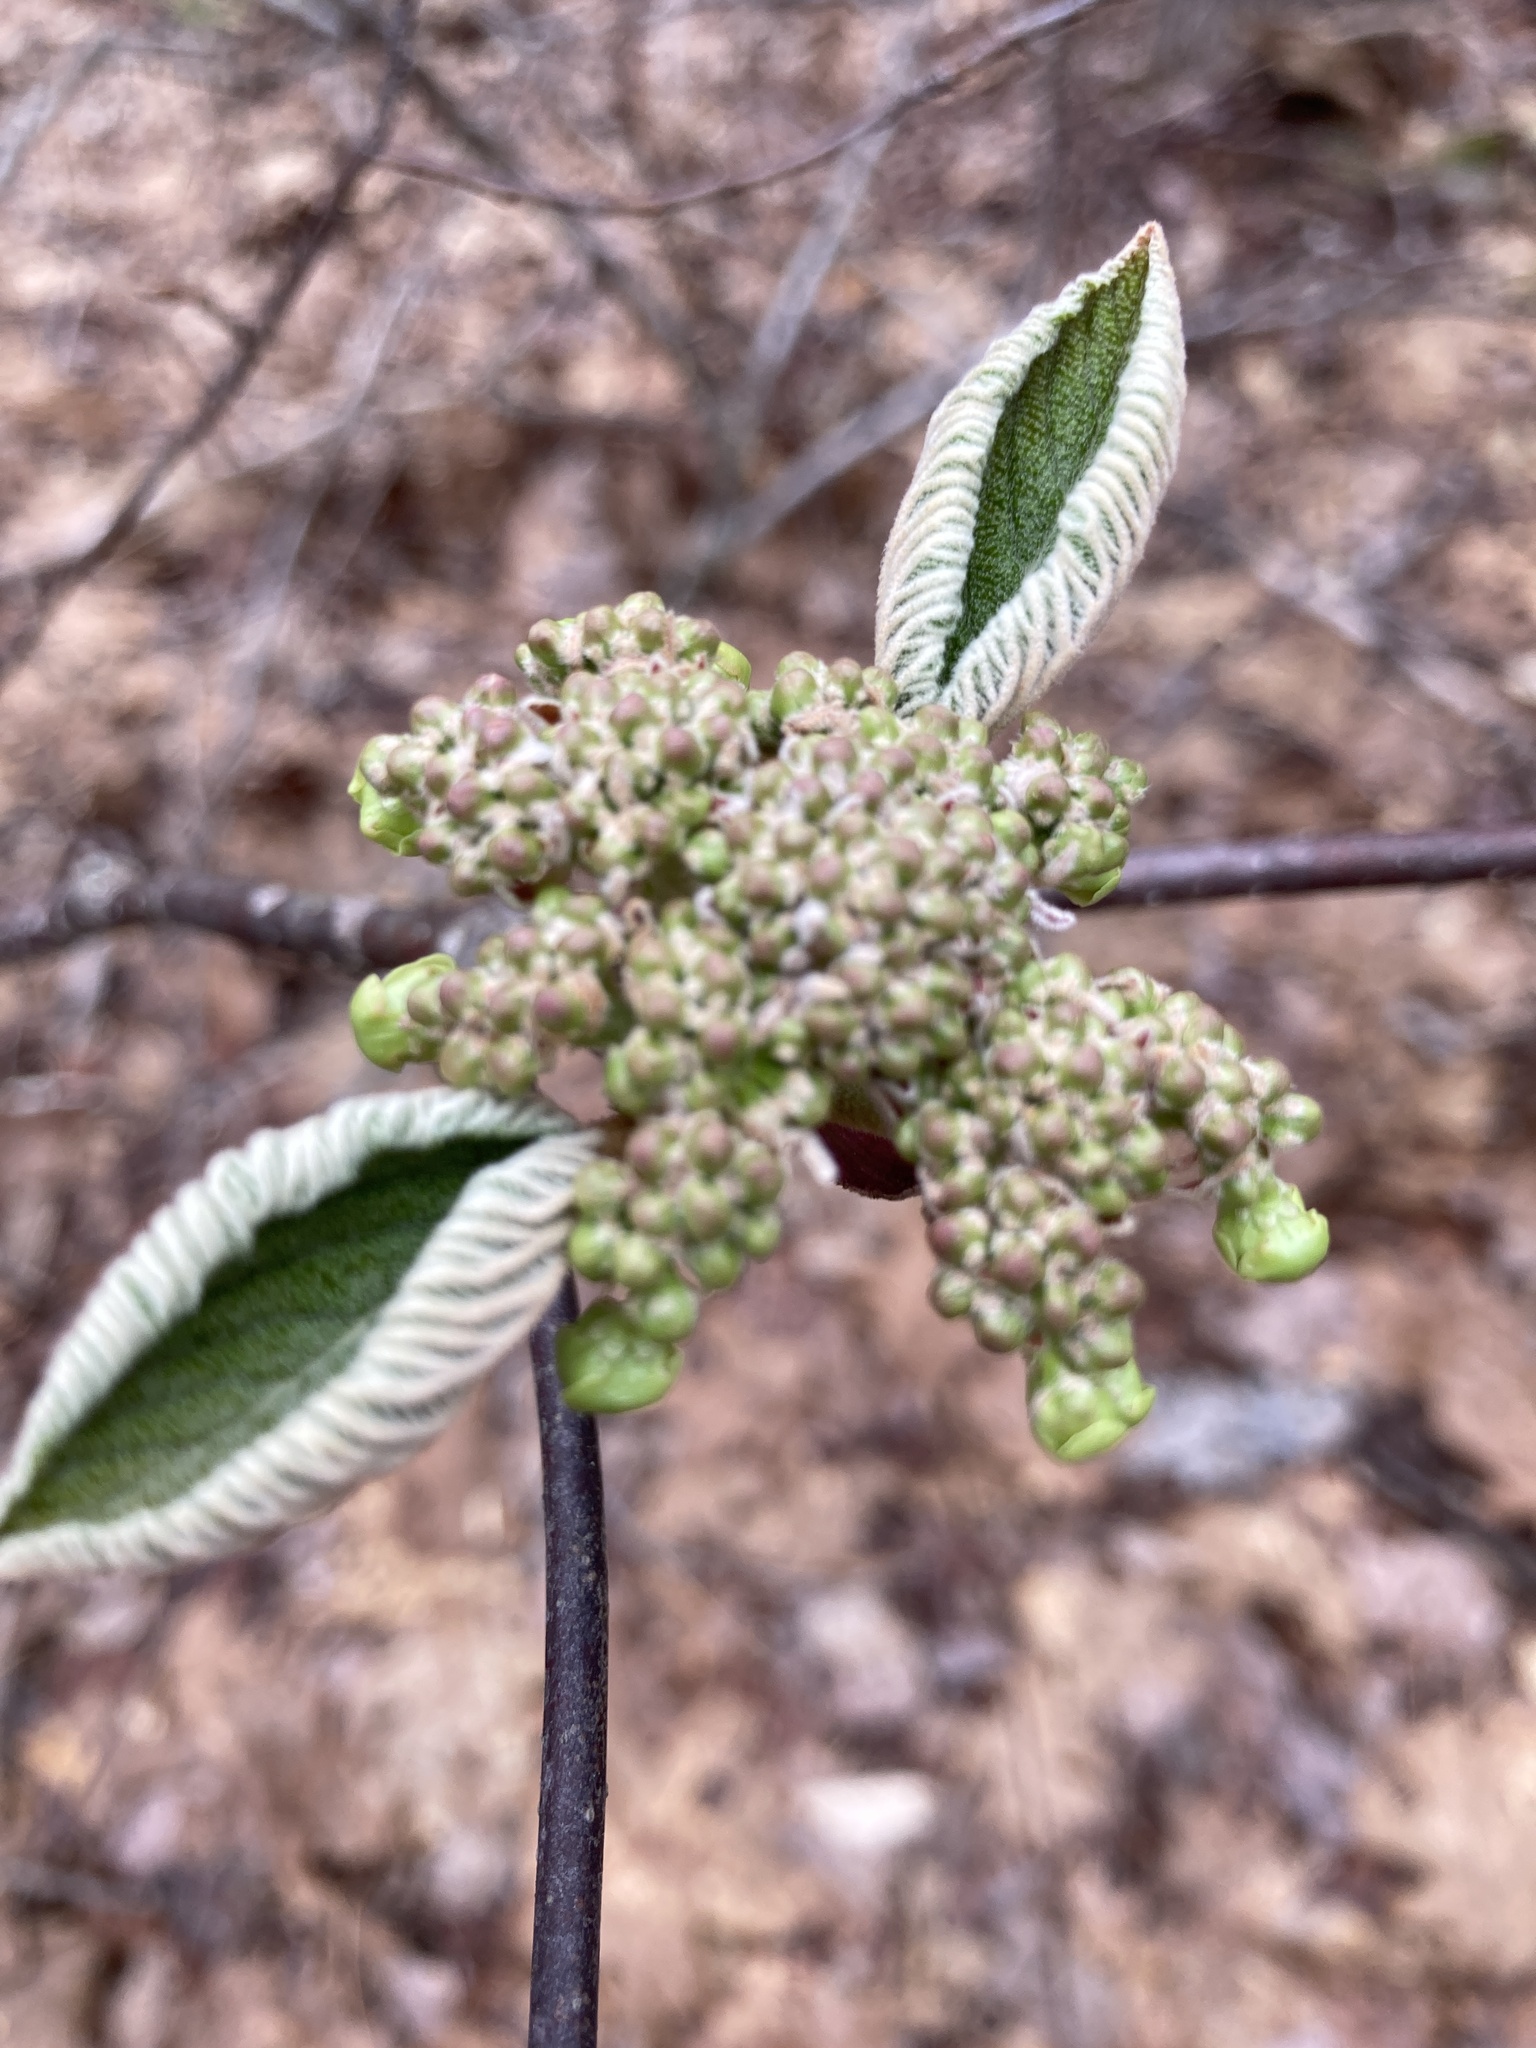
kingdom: Plantae
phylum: Tracheophyta
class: Magnoliopsida
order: Dipsacales
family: Viburnaceae
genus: Viburnum
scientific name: Viburnum lantanoides
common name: Hobblebush
